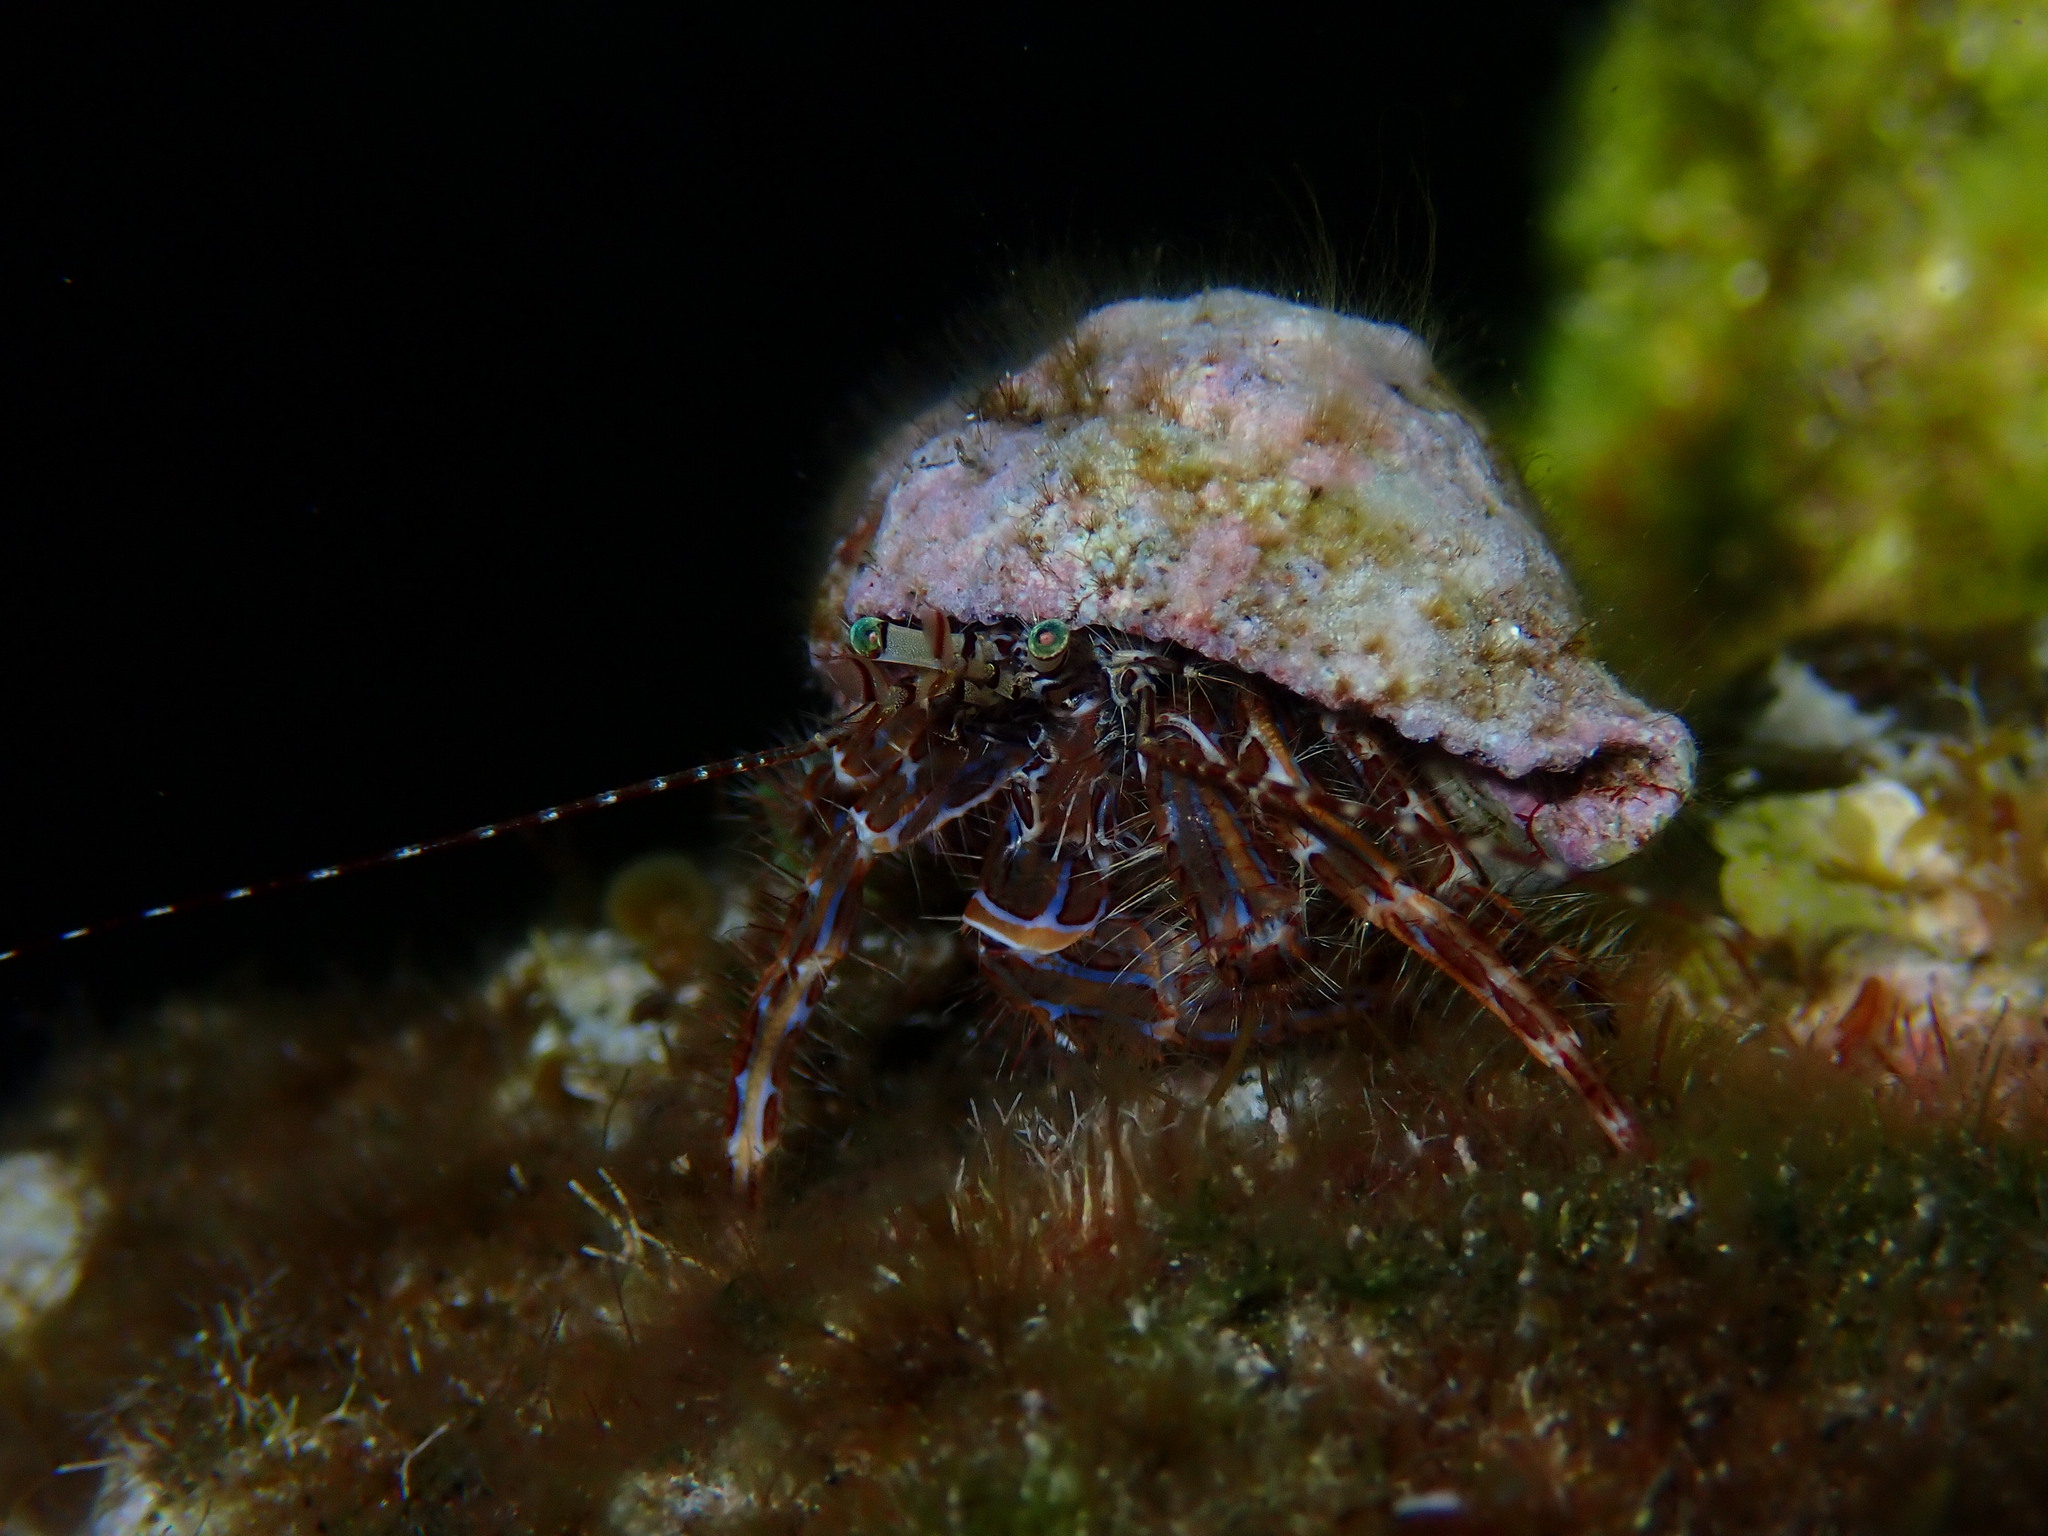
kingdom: Animalia
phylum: Arthropoda
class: Malacostraca
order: Decapoda
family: Paguridae
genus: Pagurus
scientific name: Pagurus anachoretus
